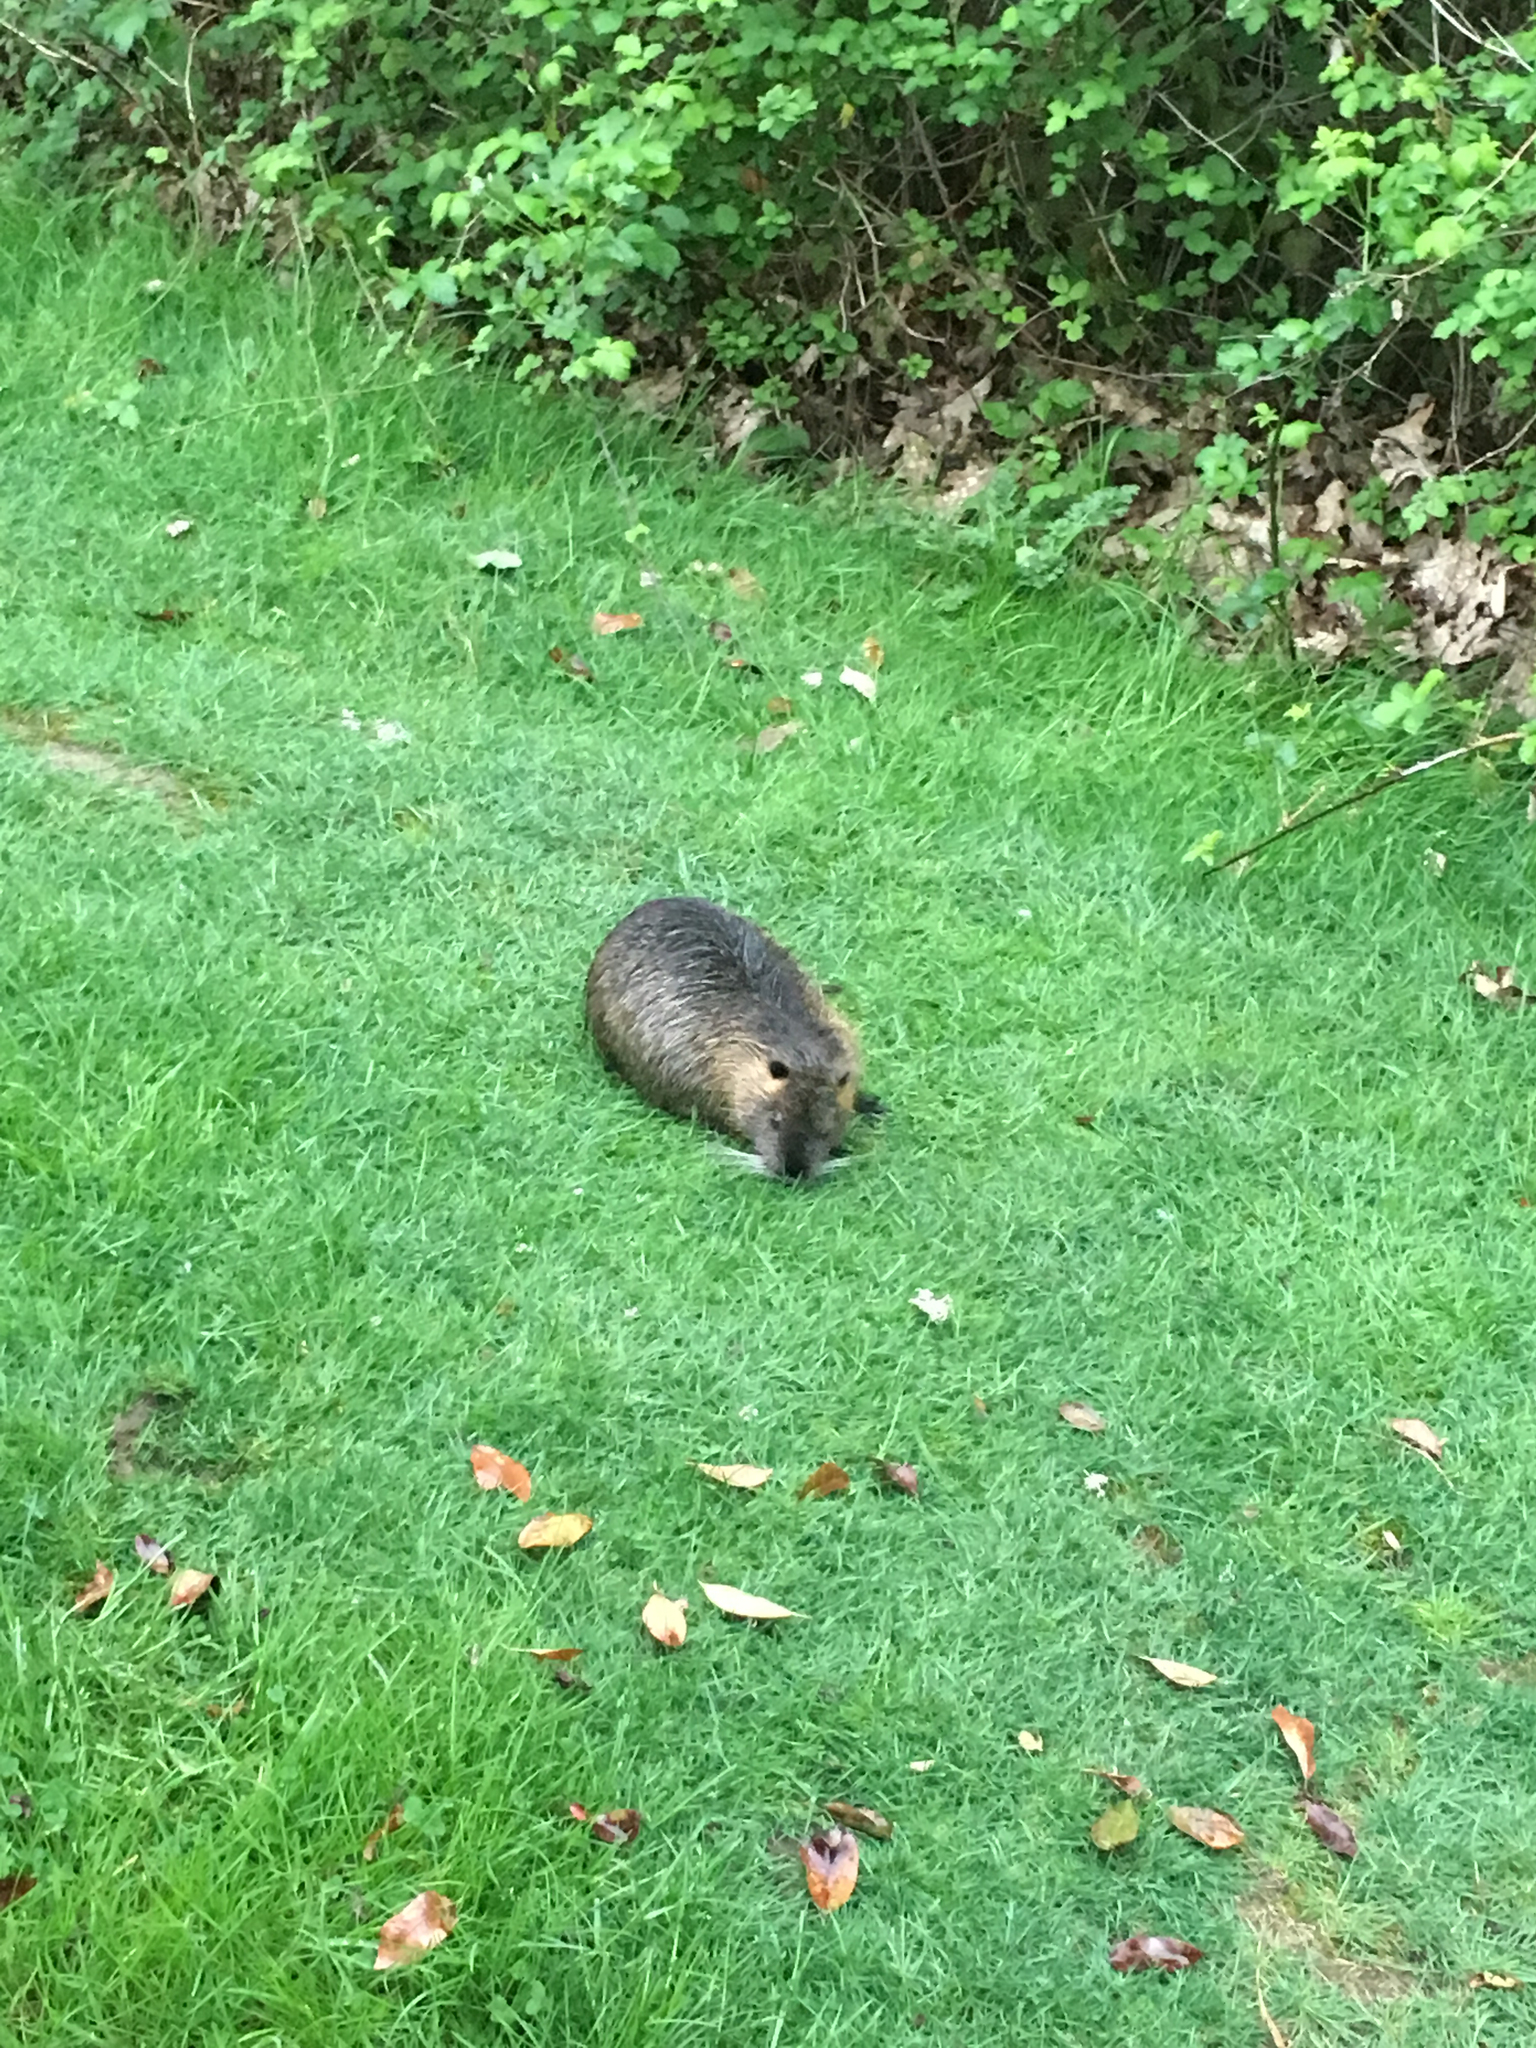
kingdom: Animalia
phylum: Chordata
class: Mammalia
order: Rodentia
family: Myocastoridae
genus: Myocastor
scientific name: Myocastor coypus
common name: Coypu
